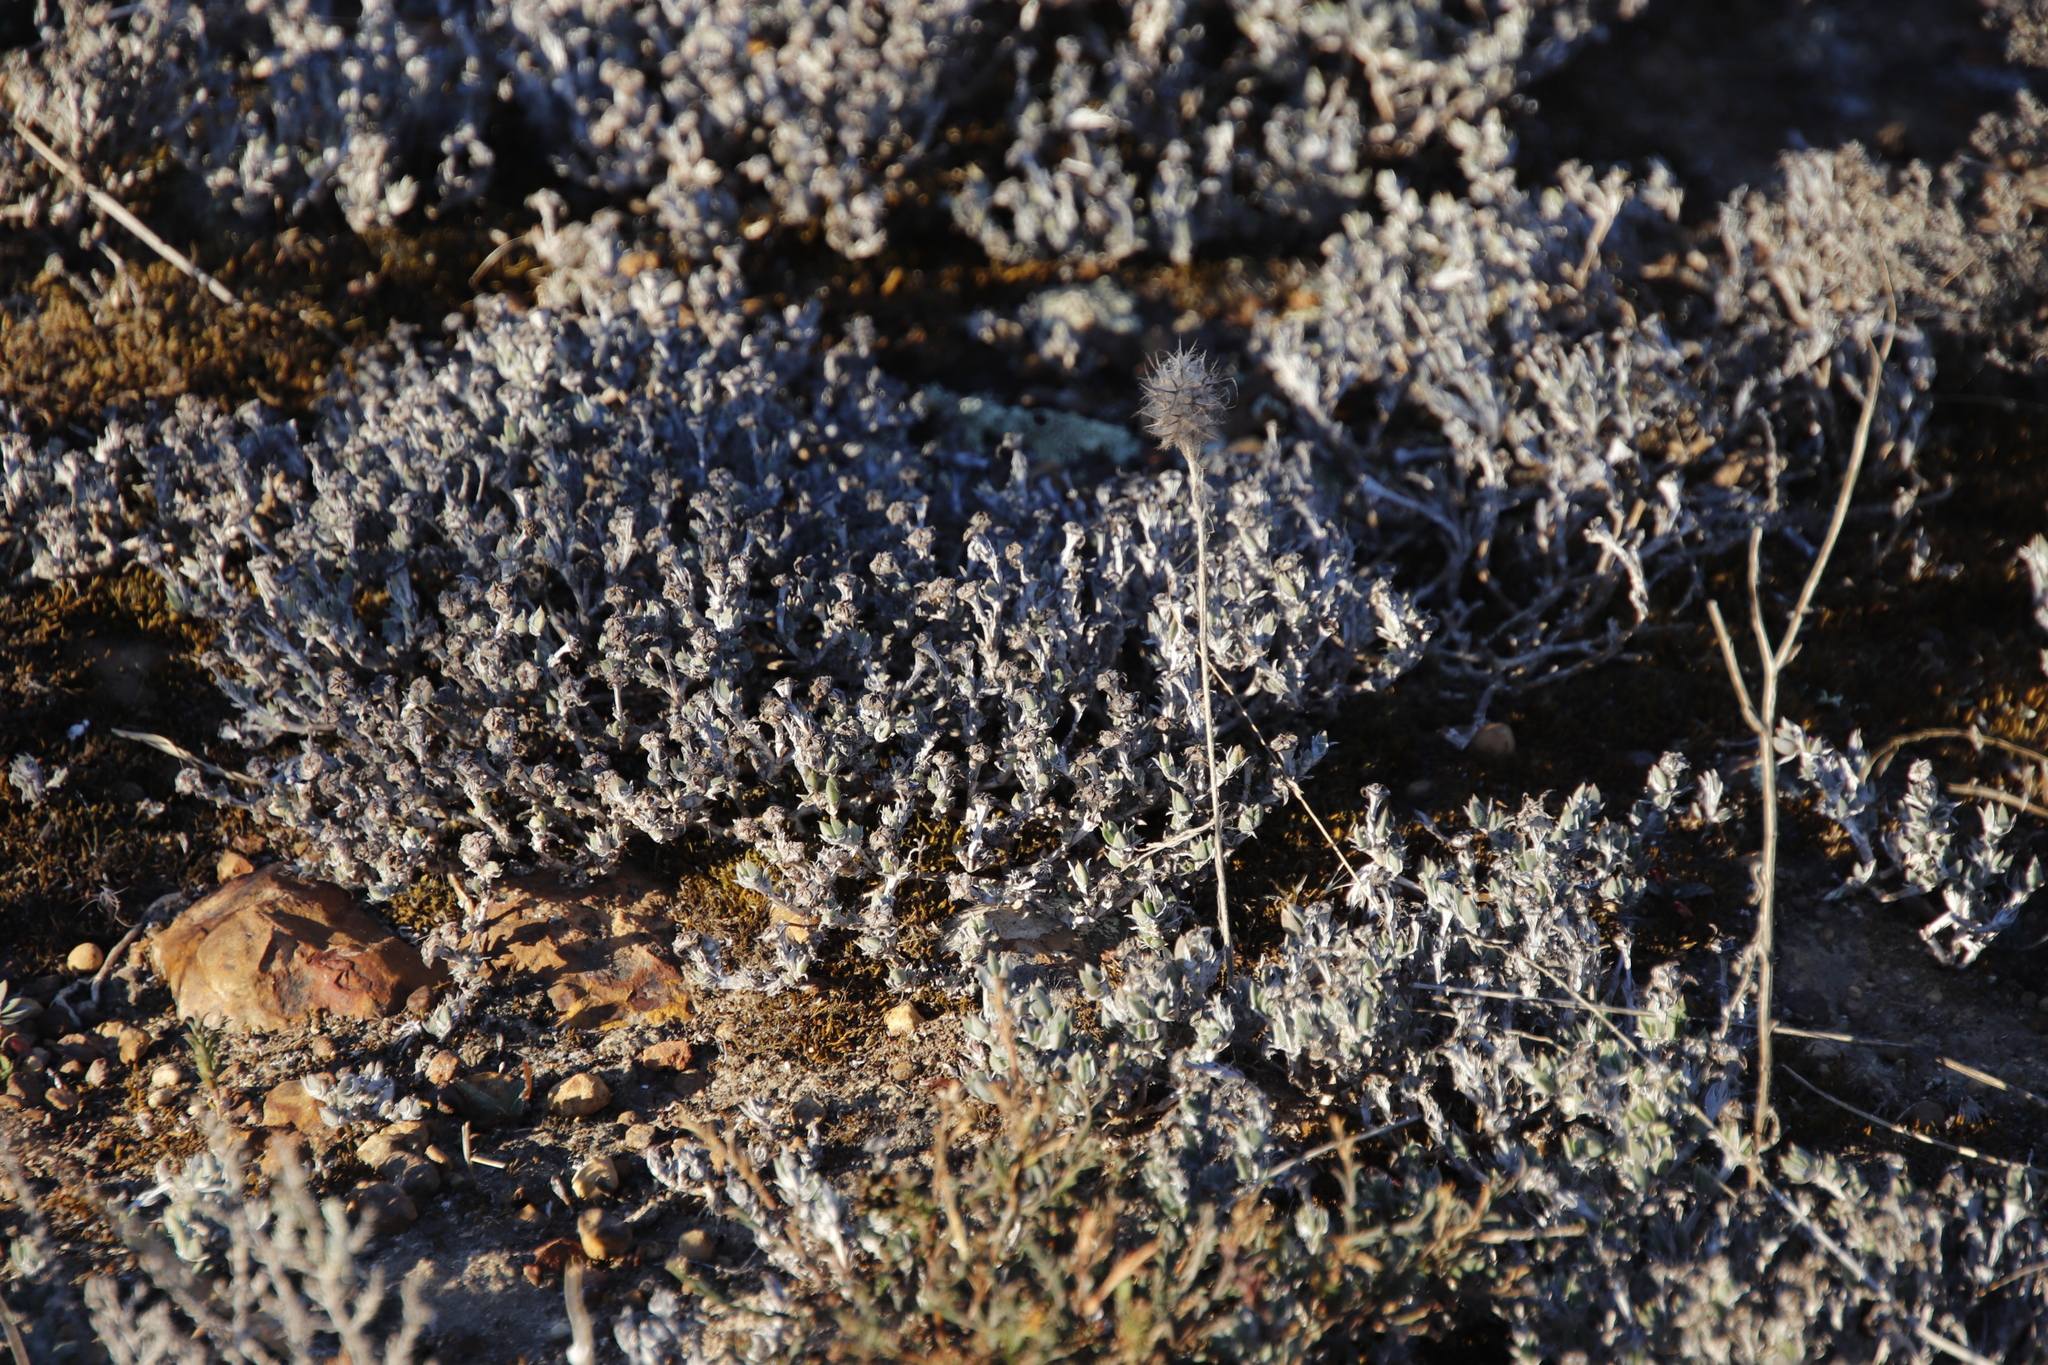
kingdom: Plantae
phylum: Tracheophyta
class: Magnoliopsida
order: Caryophyllales
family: Aizoaceae
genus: Antimima
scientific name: Antimima aristulata
